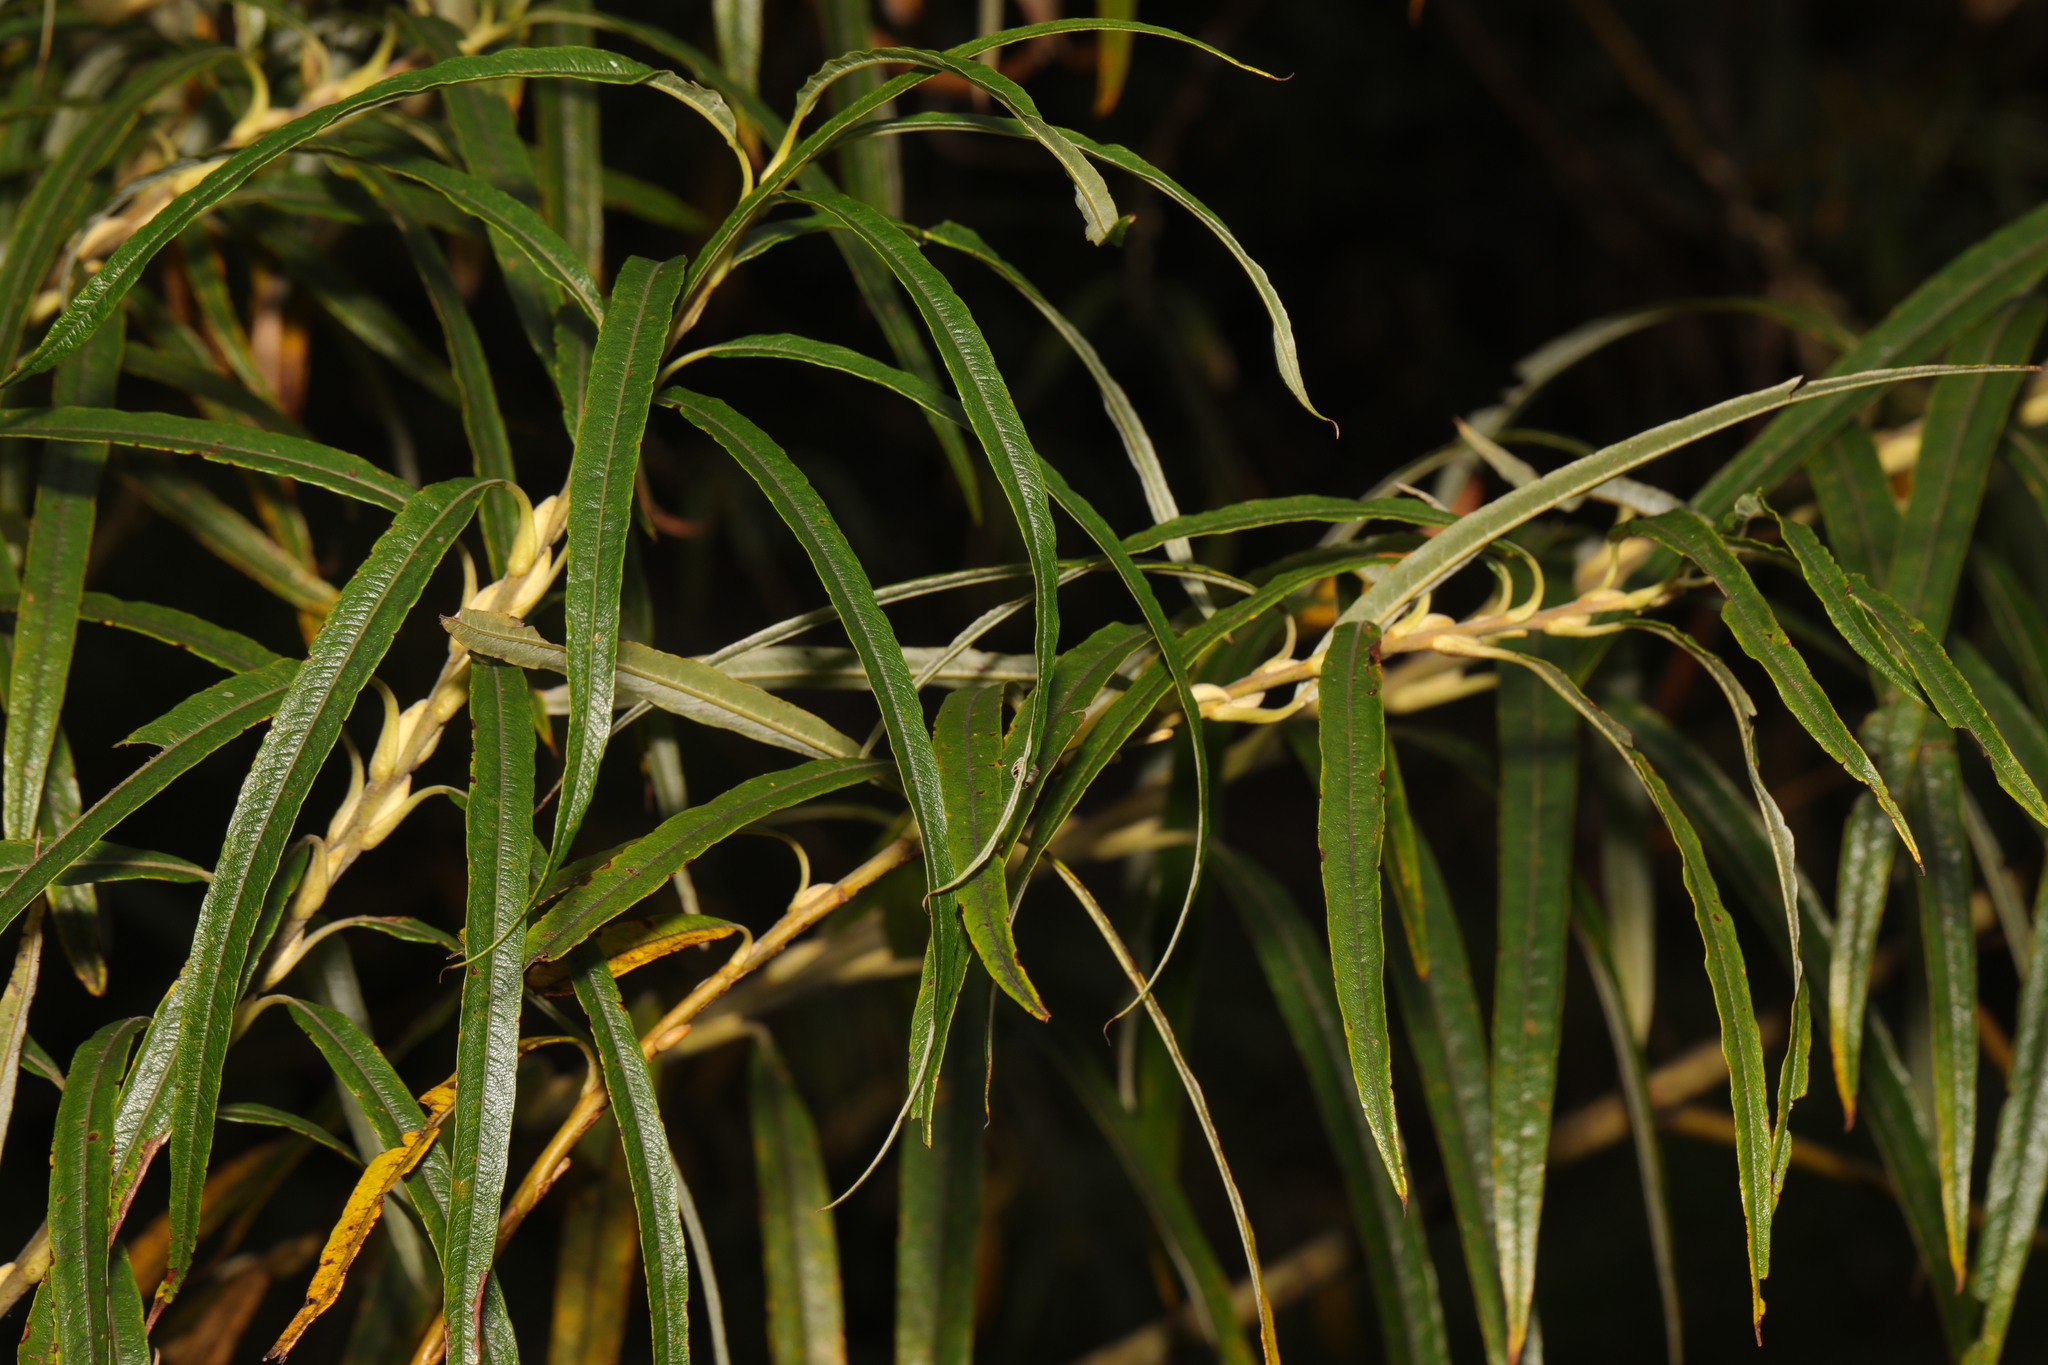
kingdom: Plantae
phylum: Tracheophyta
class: Magnoliopsida
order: Malpighiales
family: Salicaceae
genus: Salix
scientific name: Salix viminalis
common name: Osier
